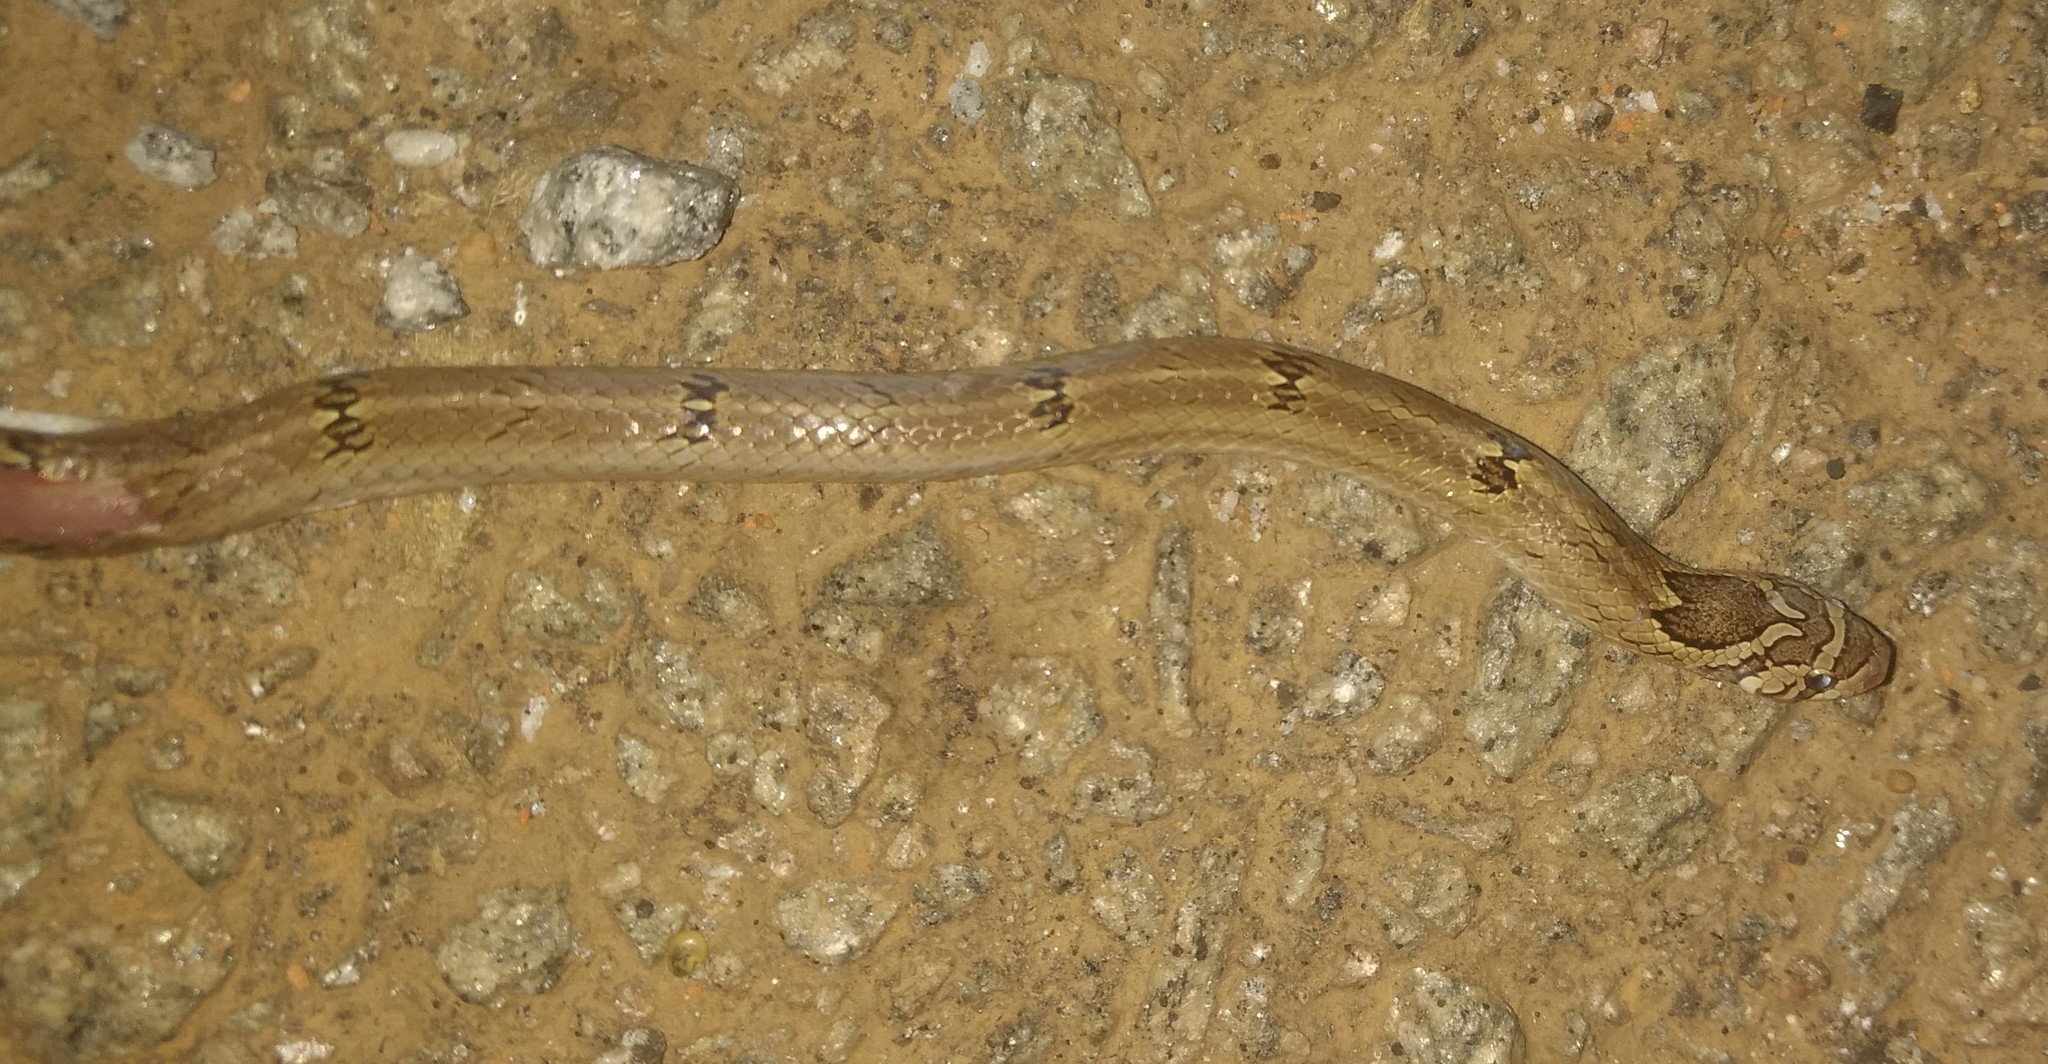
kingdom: Animalia
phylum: Chordata
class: Squamata
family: Colubridae
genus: Oligodon
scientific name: Oligodon taeniolatus
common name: Loos snake
